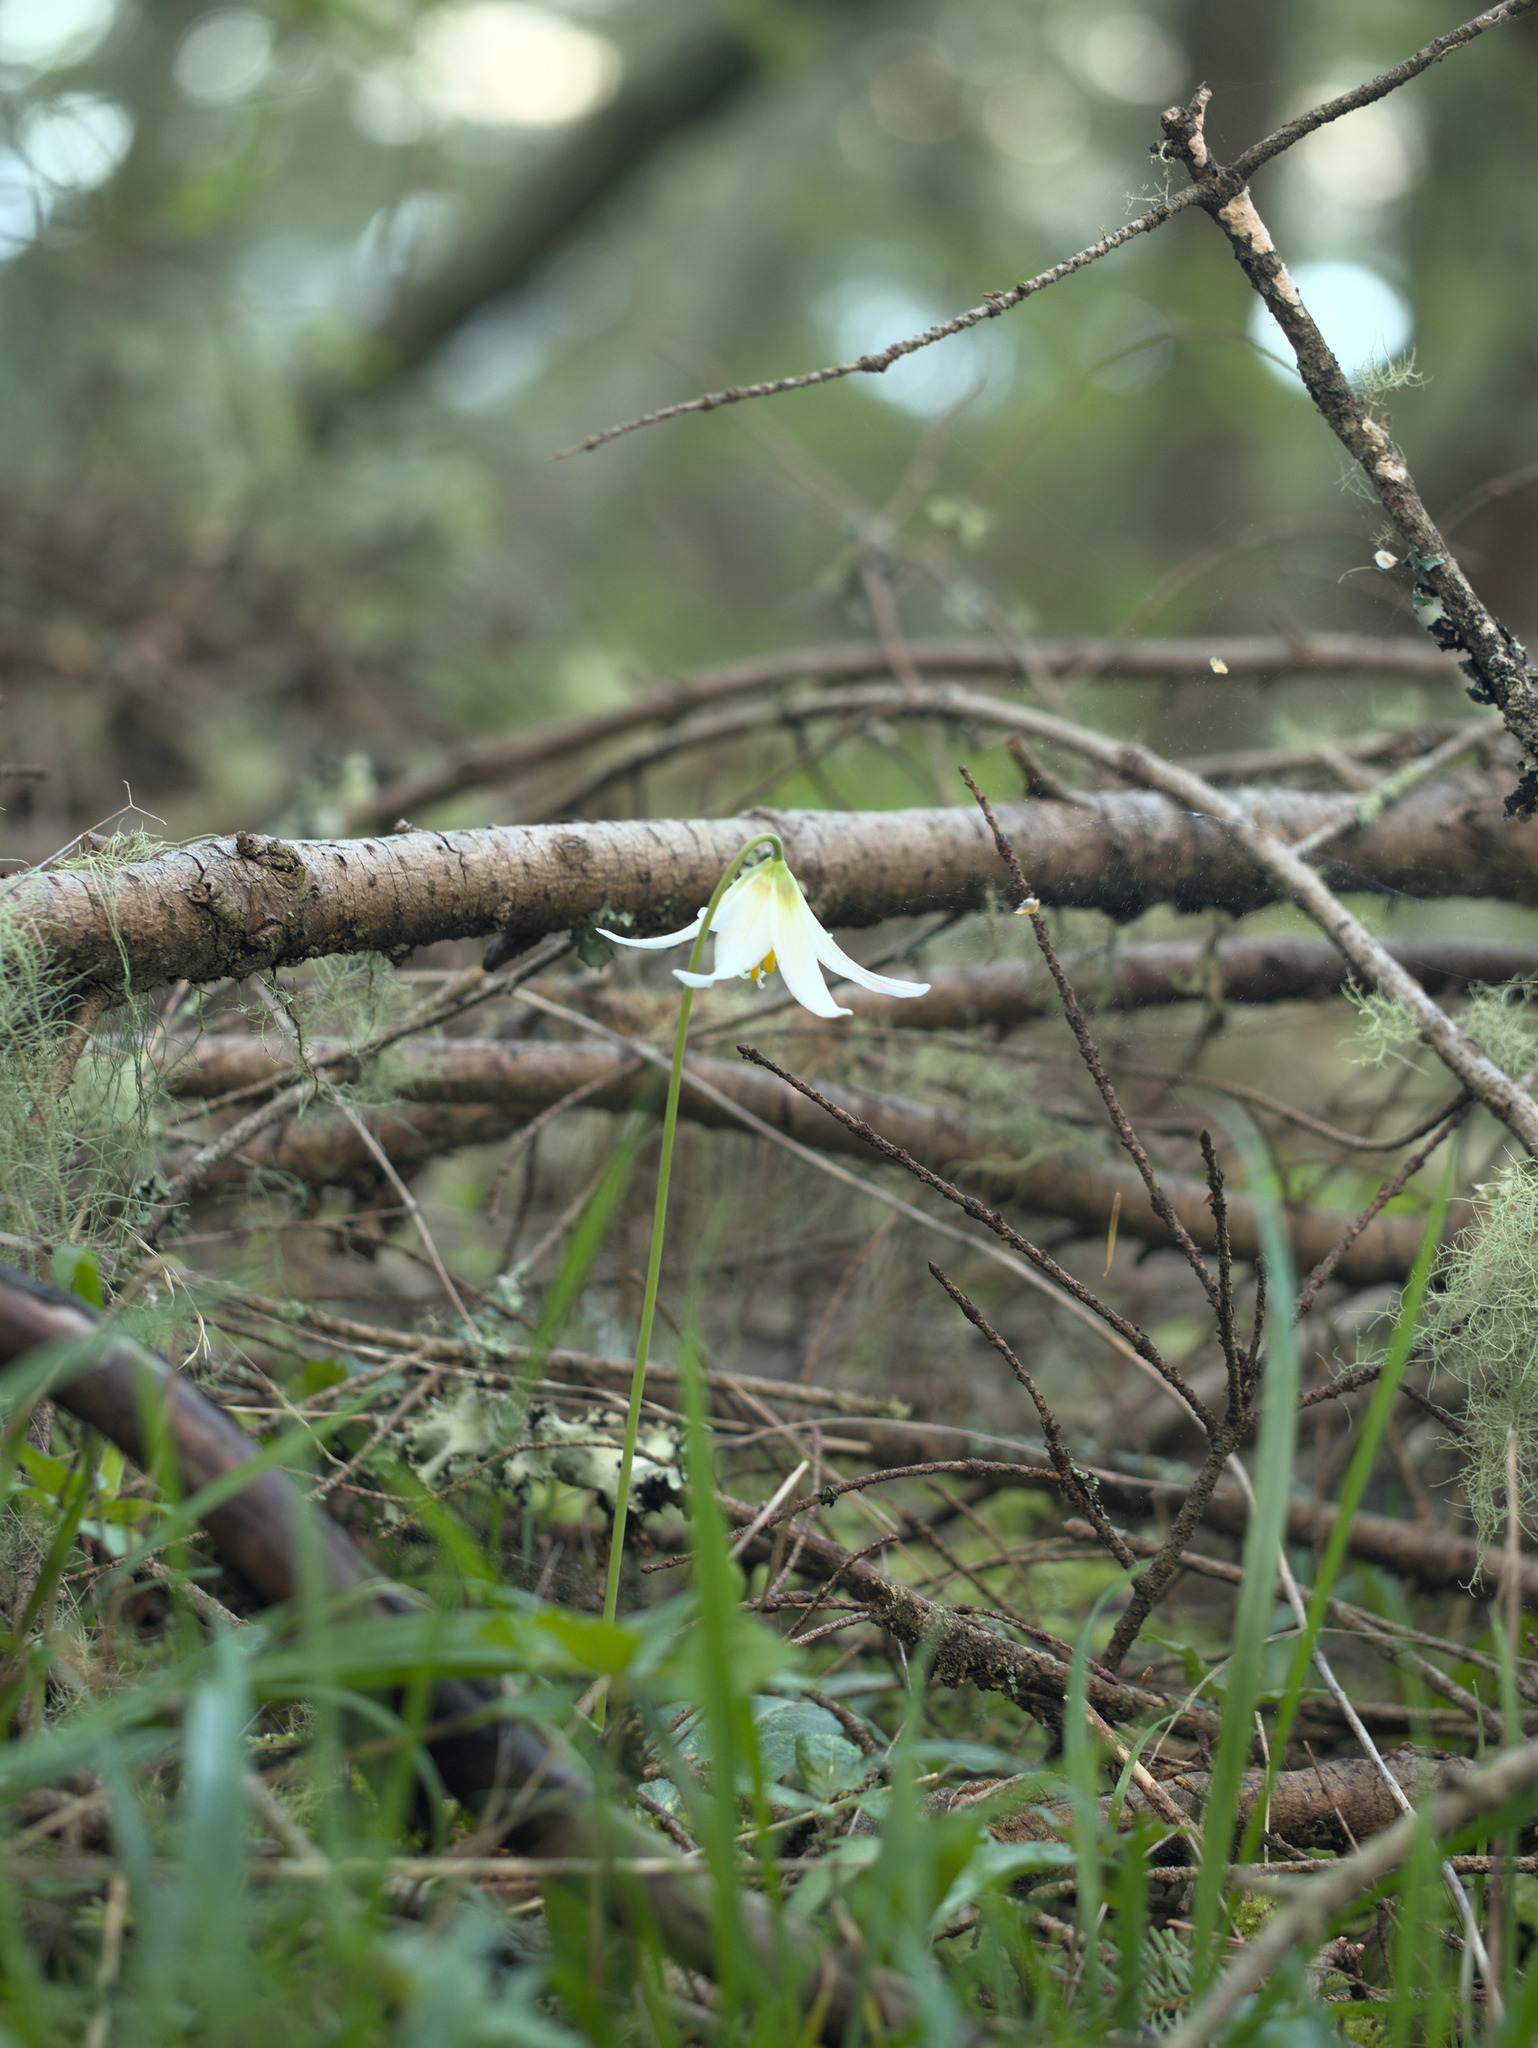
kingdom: Plantae
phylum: Tracheophyta
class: Liliopsida
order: Liliales
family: Liliaceae
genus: Erythronium
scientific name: Erythronium oregonum
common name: Giant adder's-tongue
